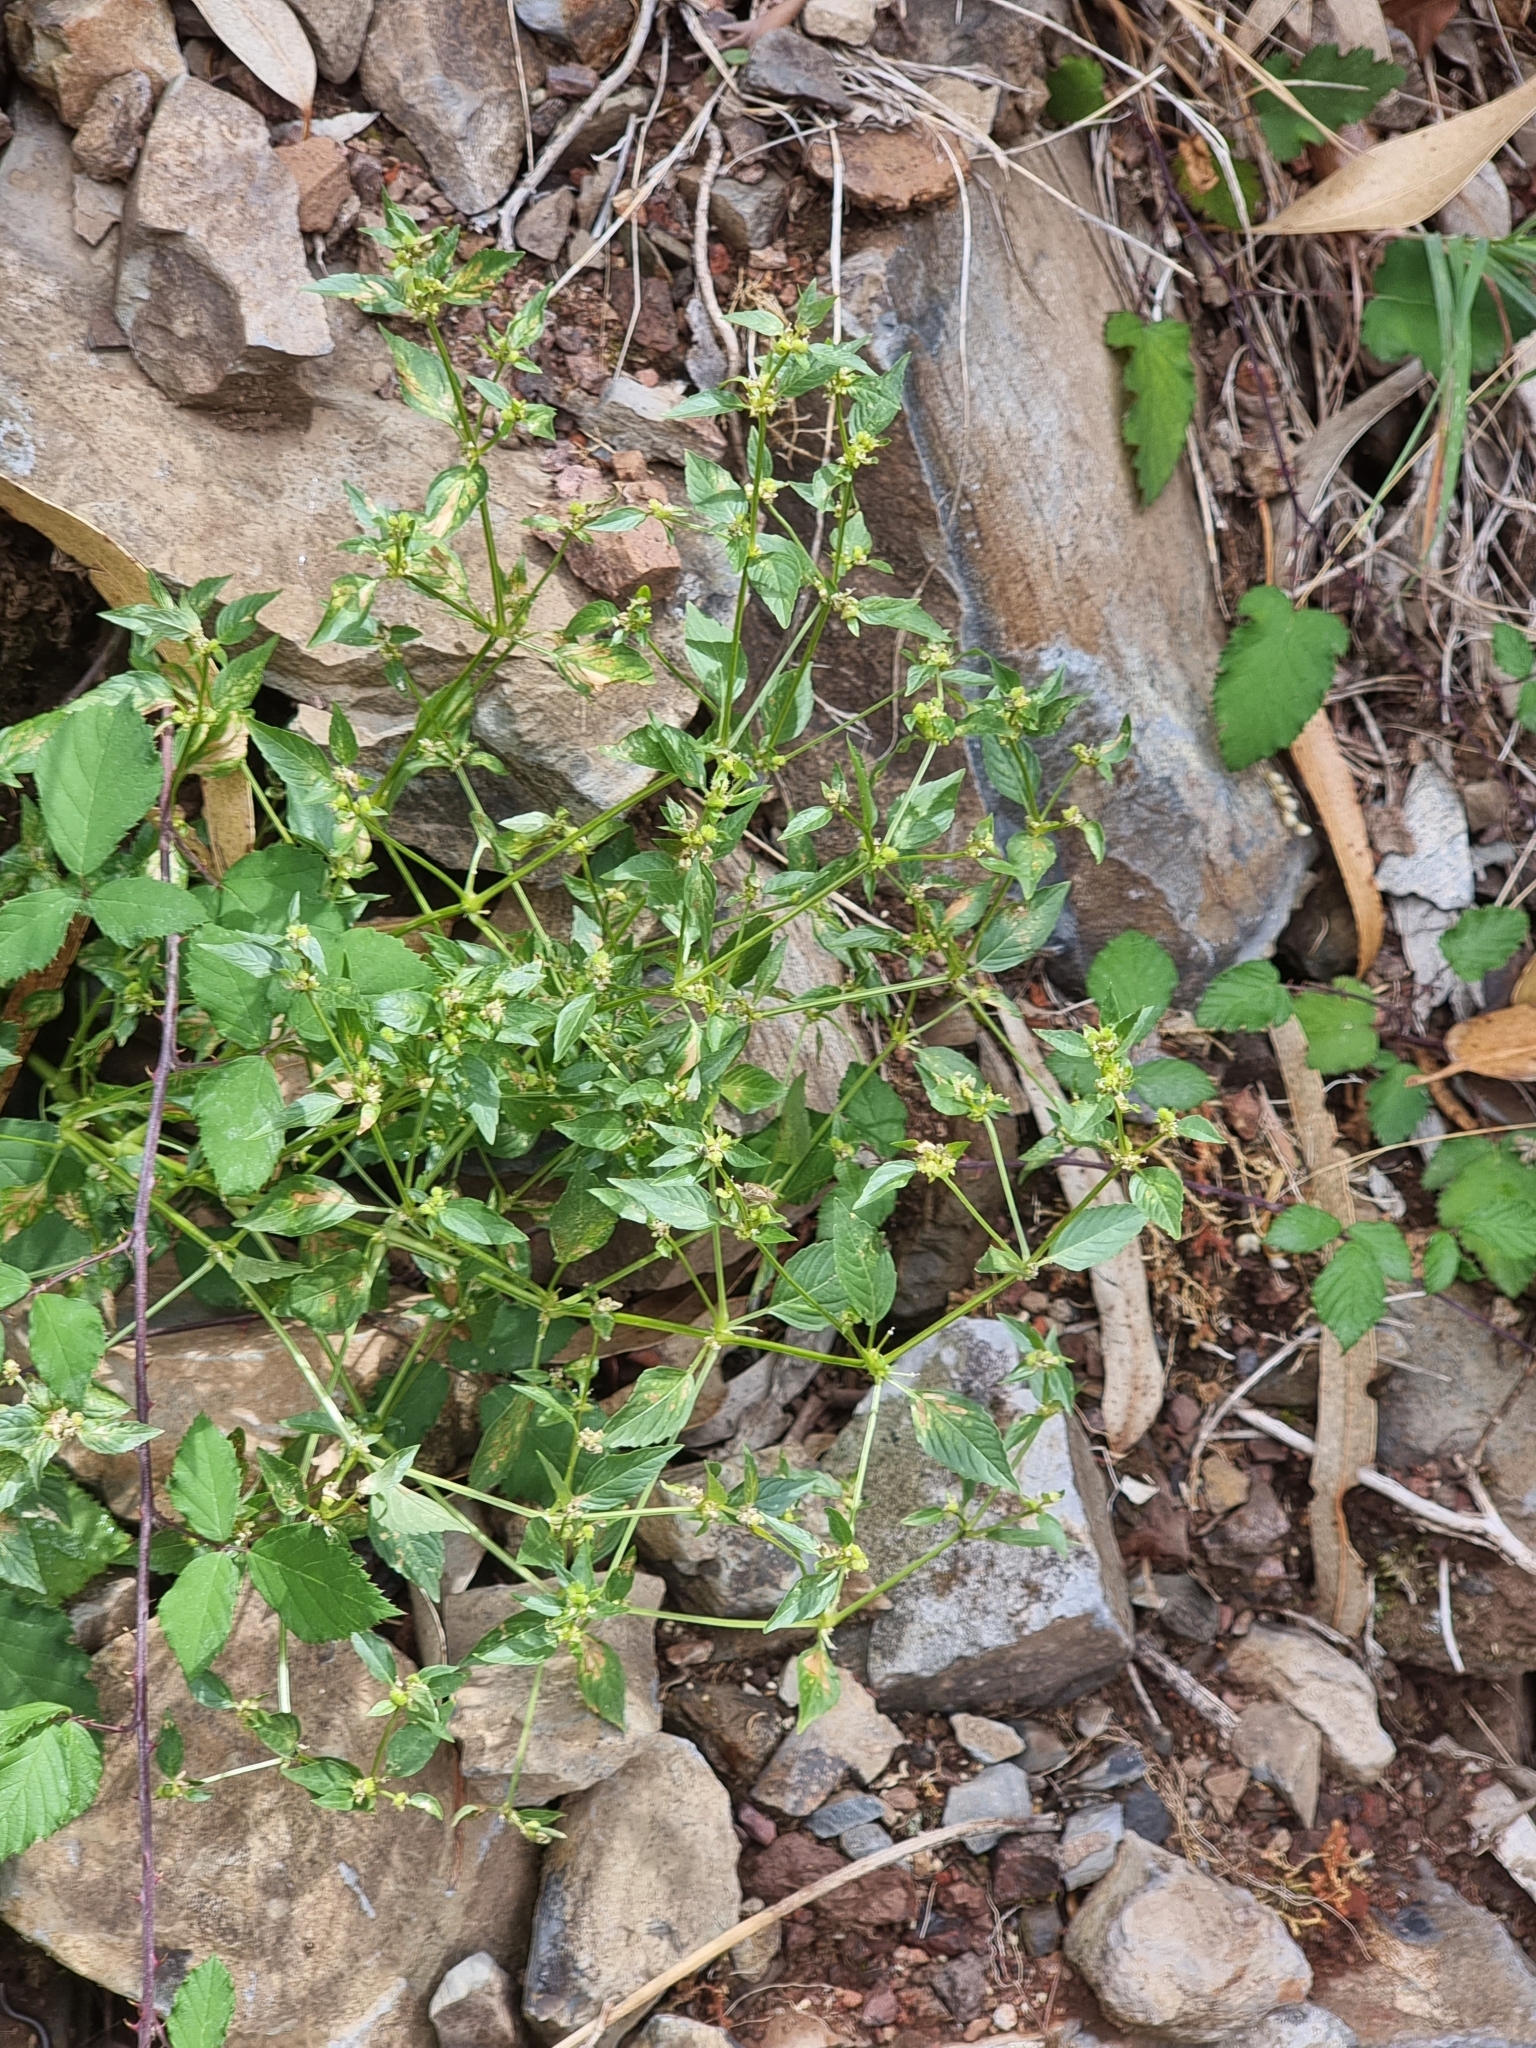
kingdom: Plantae
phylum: Tracheophyta
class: Magnoliopsida
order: Malpighiales
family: Euphorbiaceae
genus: Mercurialis
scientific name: Mercurialis annua
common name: Annual mercury
